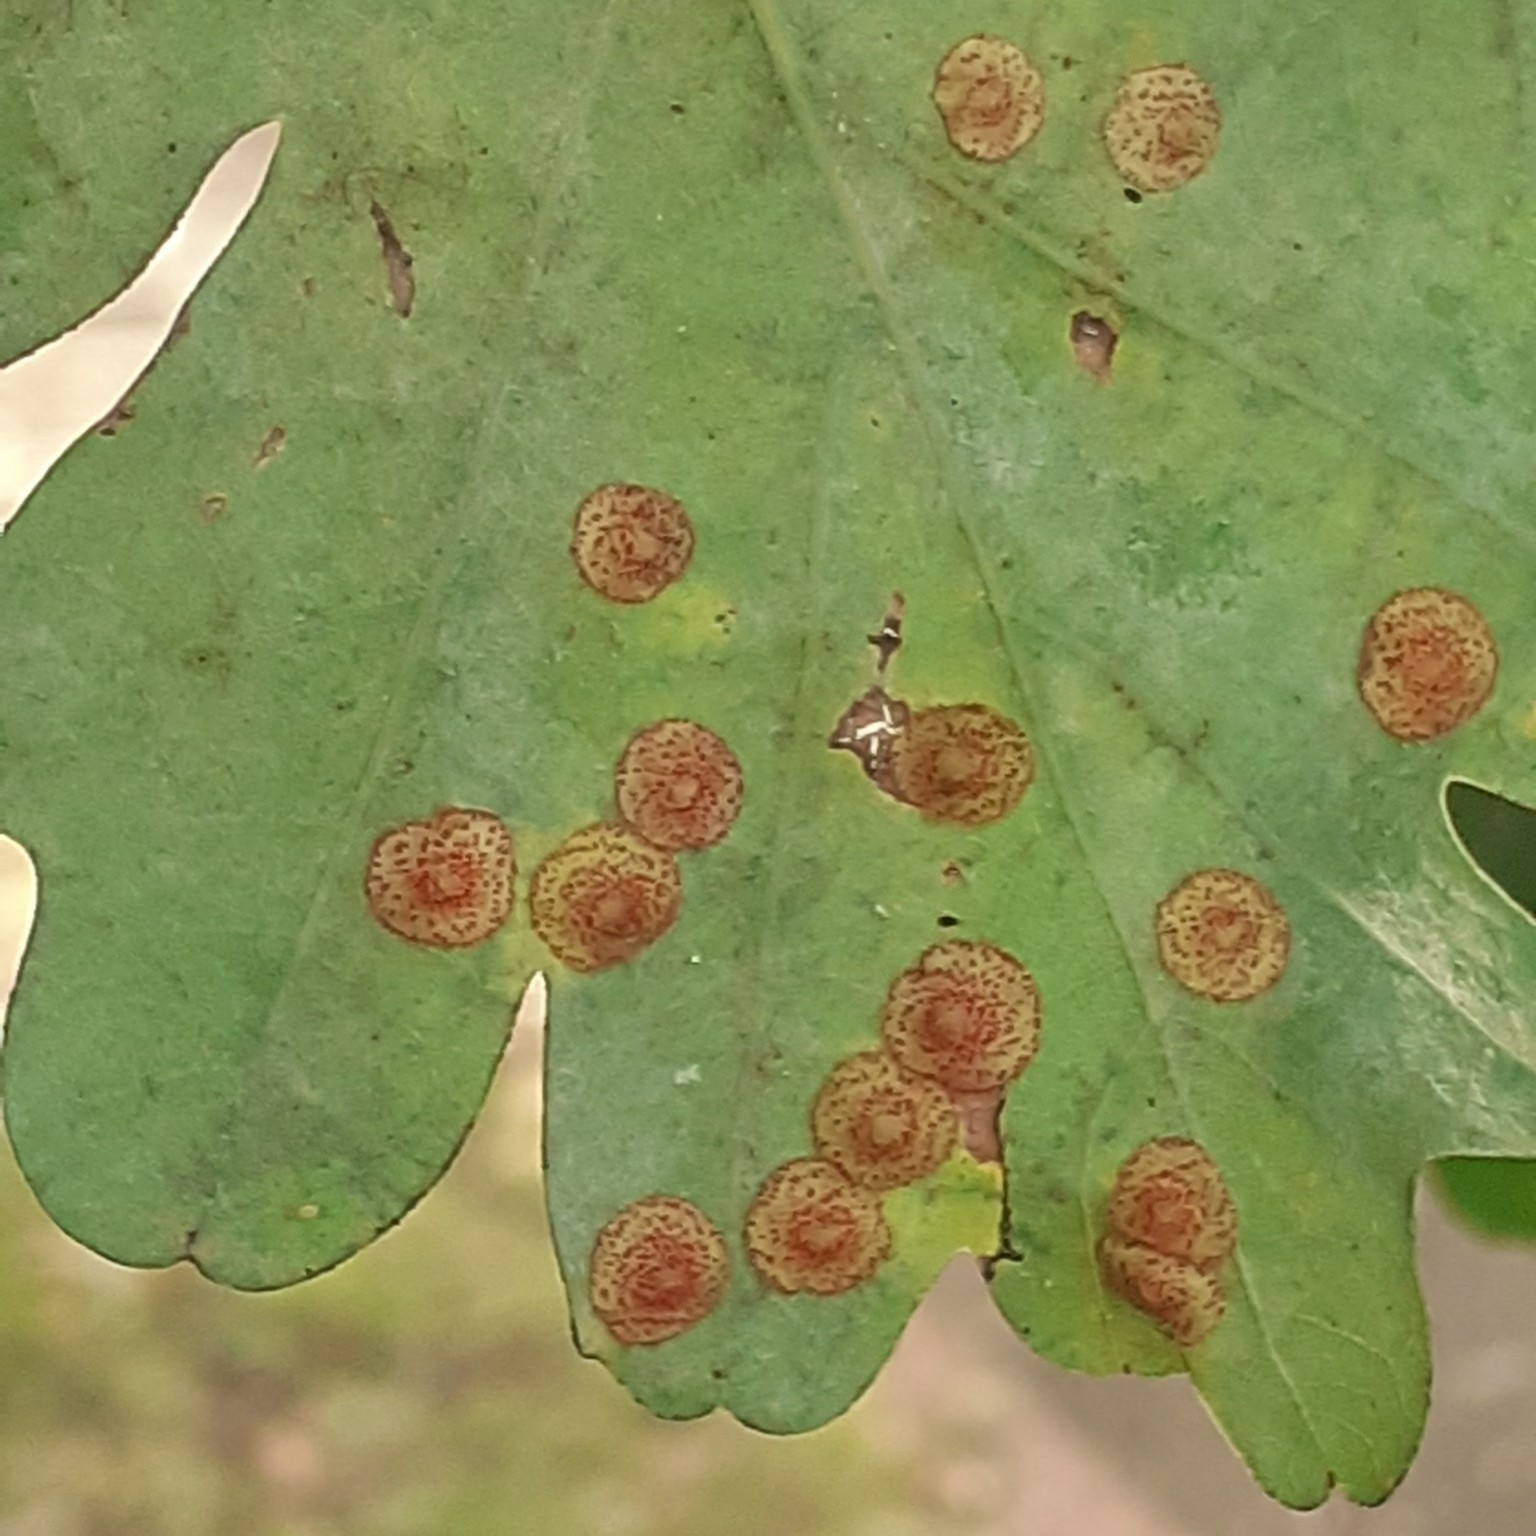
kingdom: Animalia
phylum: Arthropoda
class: Insecta
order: Hymenoptera
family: Cynipidae
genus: Neuroterus
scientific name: Neuroterus quercusbaccarum
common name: Common spangle gall
